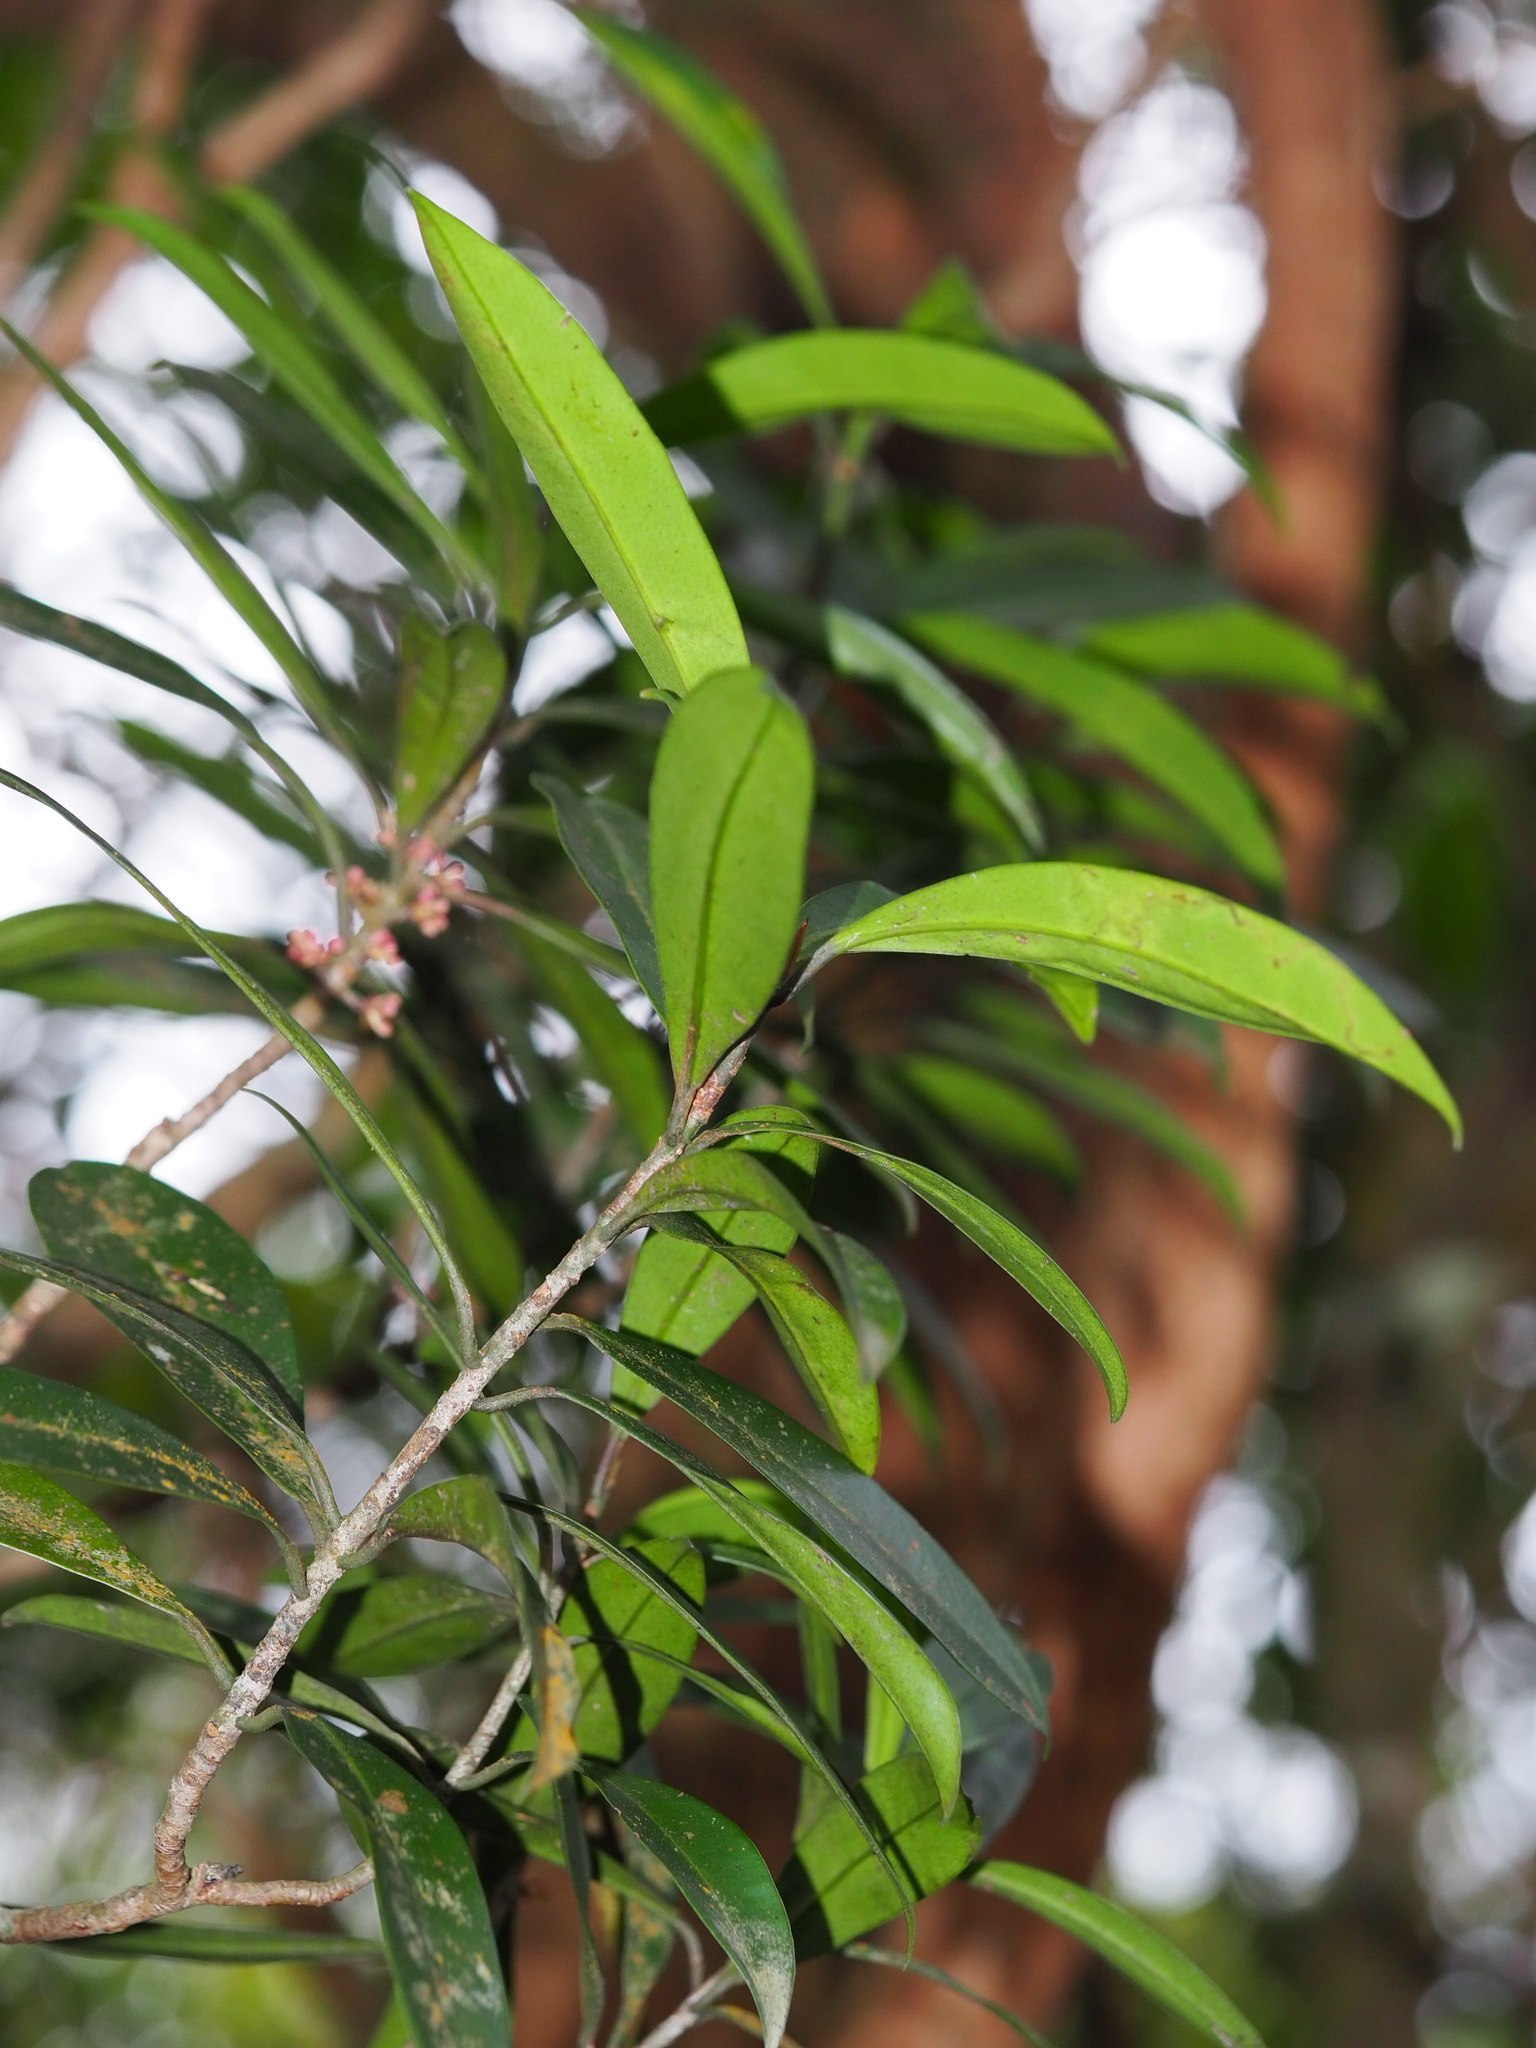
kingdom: Plantae
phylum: Tracheophyta
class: Magnoliopsida
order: Ericales
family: Primulaceae
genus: Myrsine
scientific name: Myrsine seguinii
